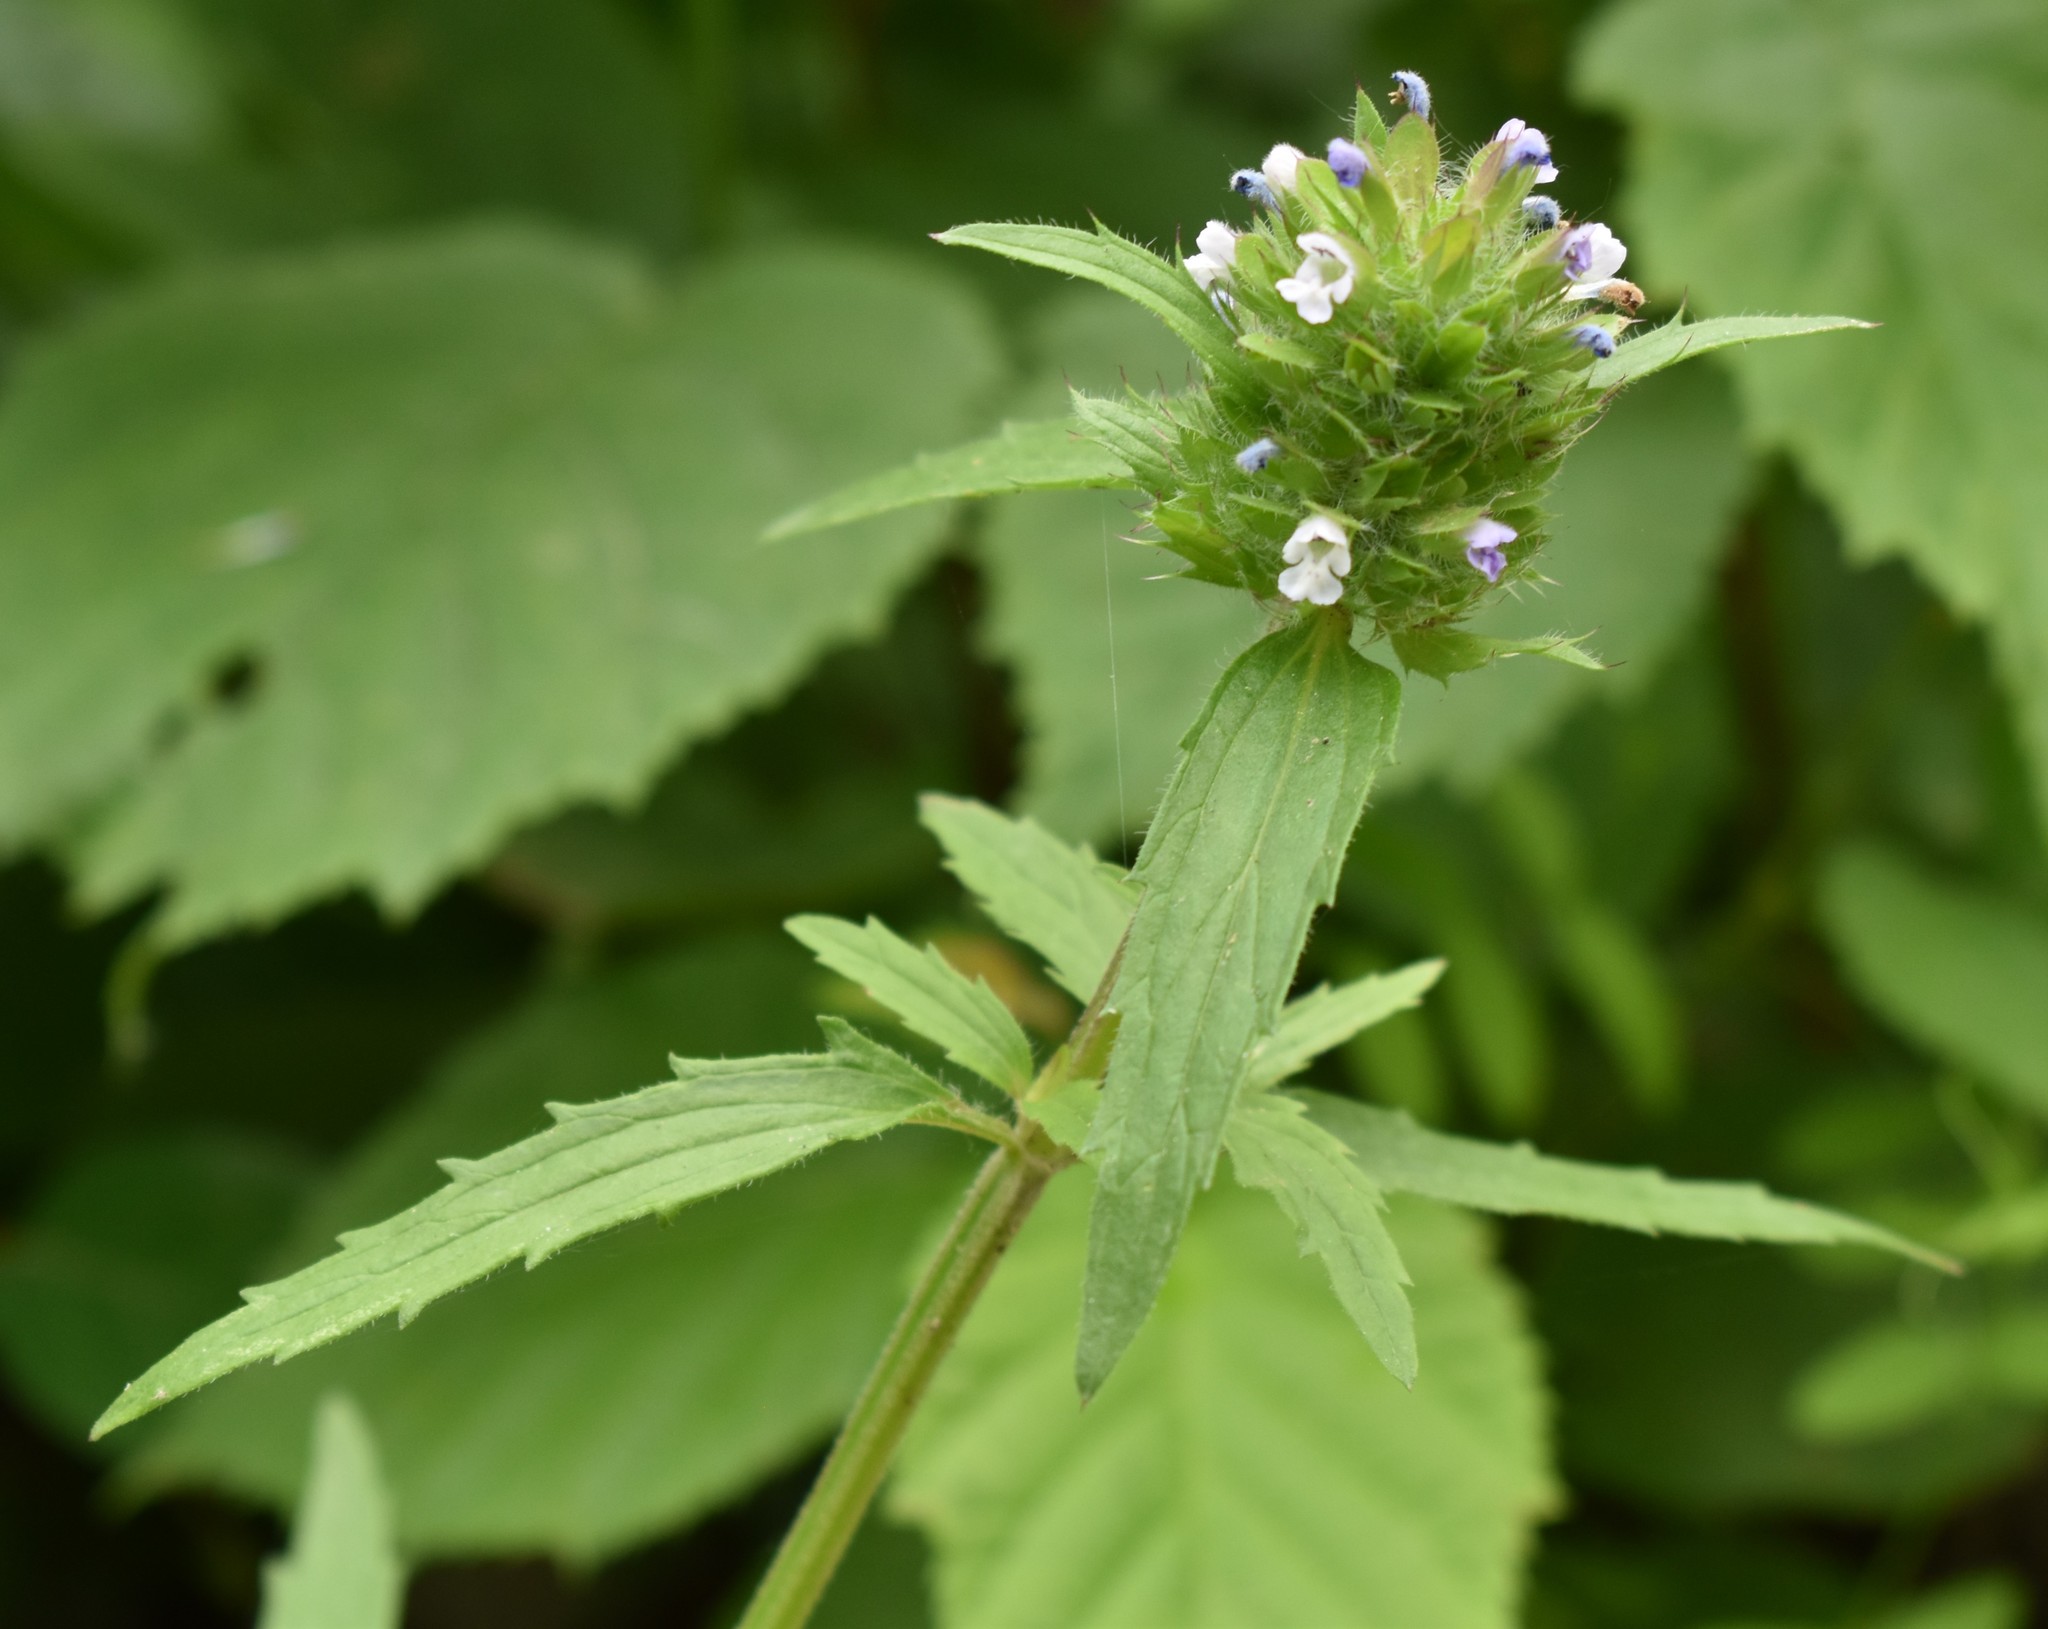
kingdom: Plantae
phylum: Tracheophyta
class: Magnoliopsida
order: Lamiales
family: Lamiaceae
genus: Dracocephalum
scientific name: Dracocephalum parviflorum
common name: American dragonhead
